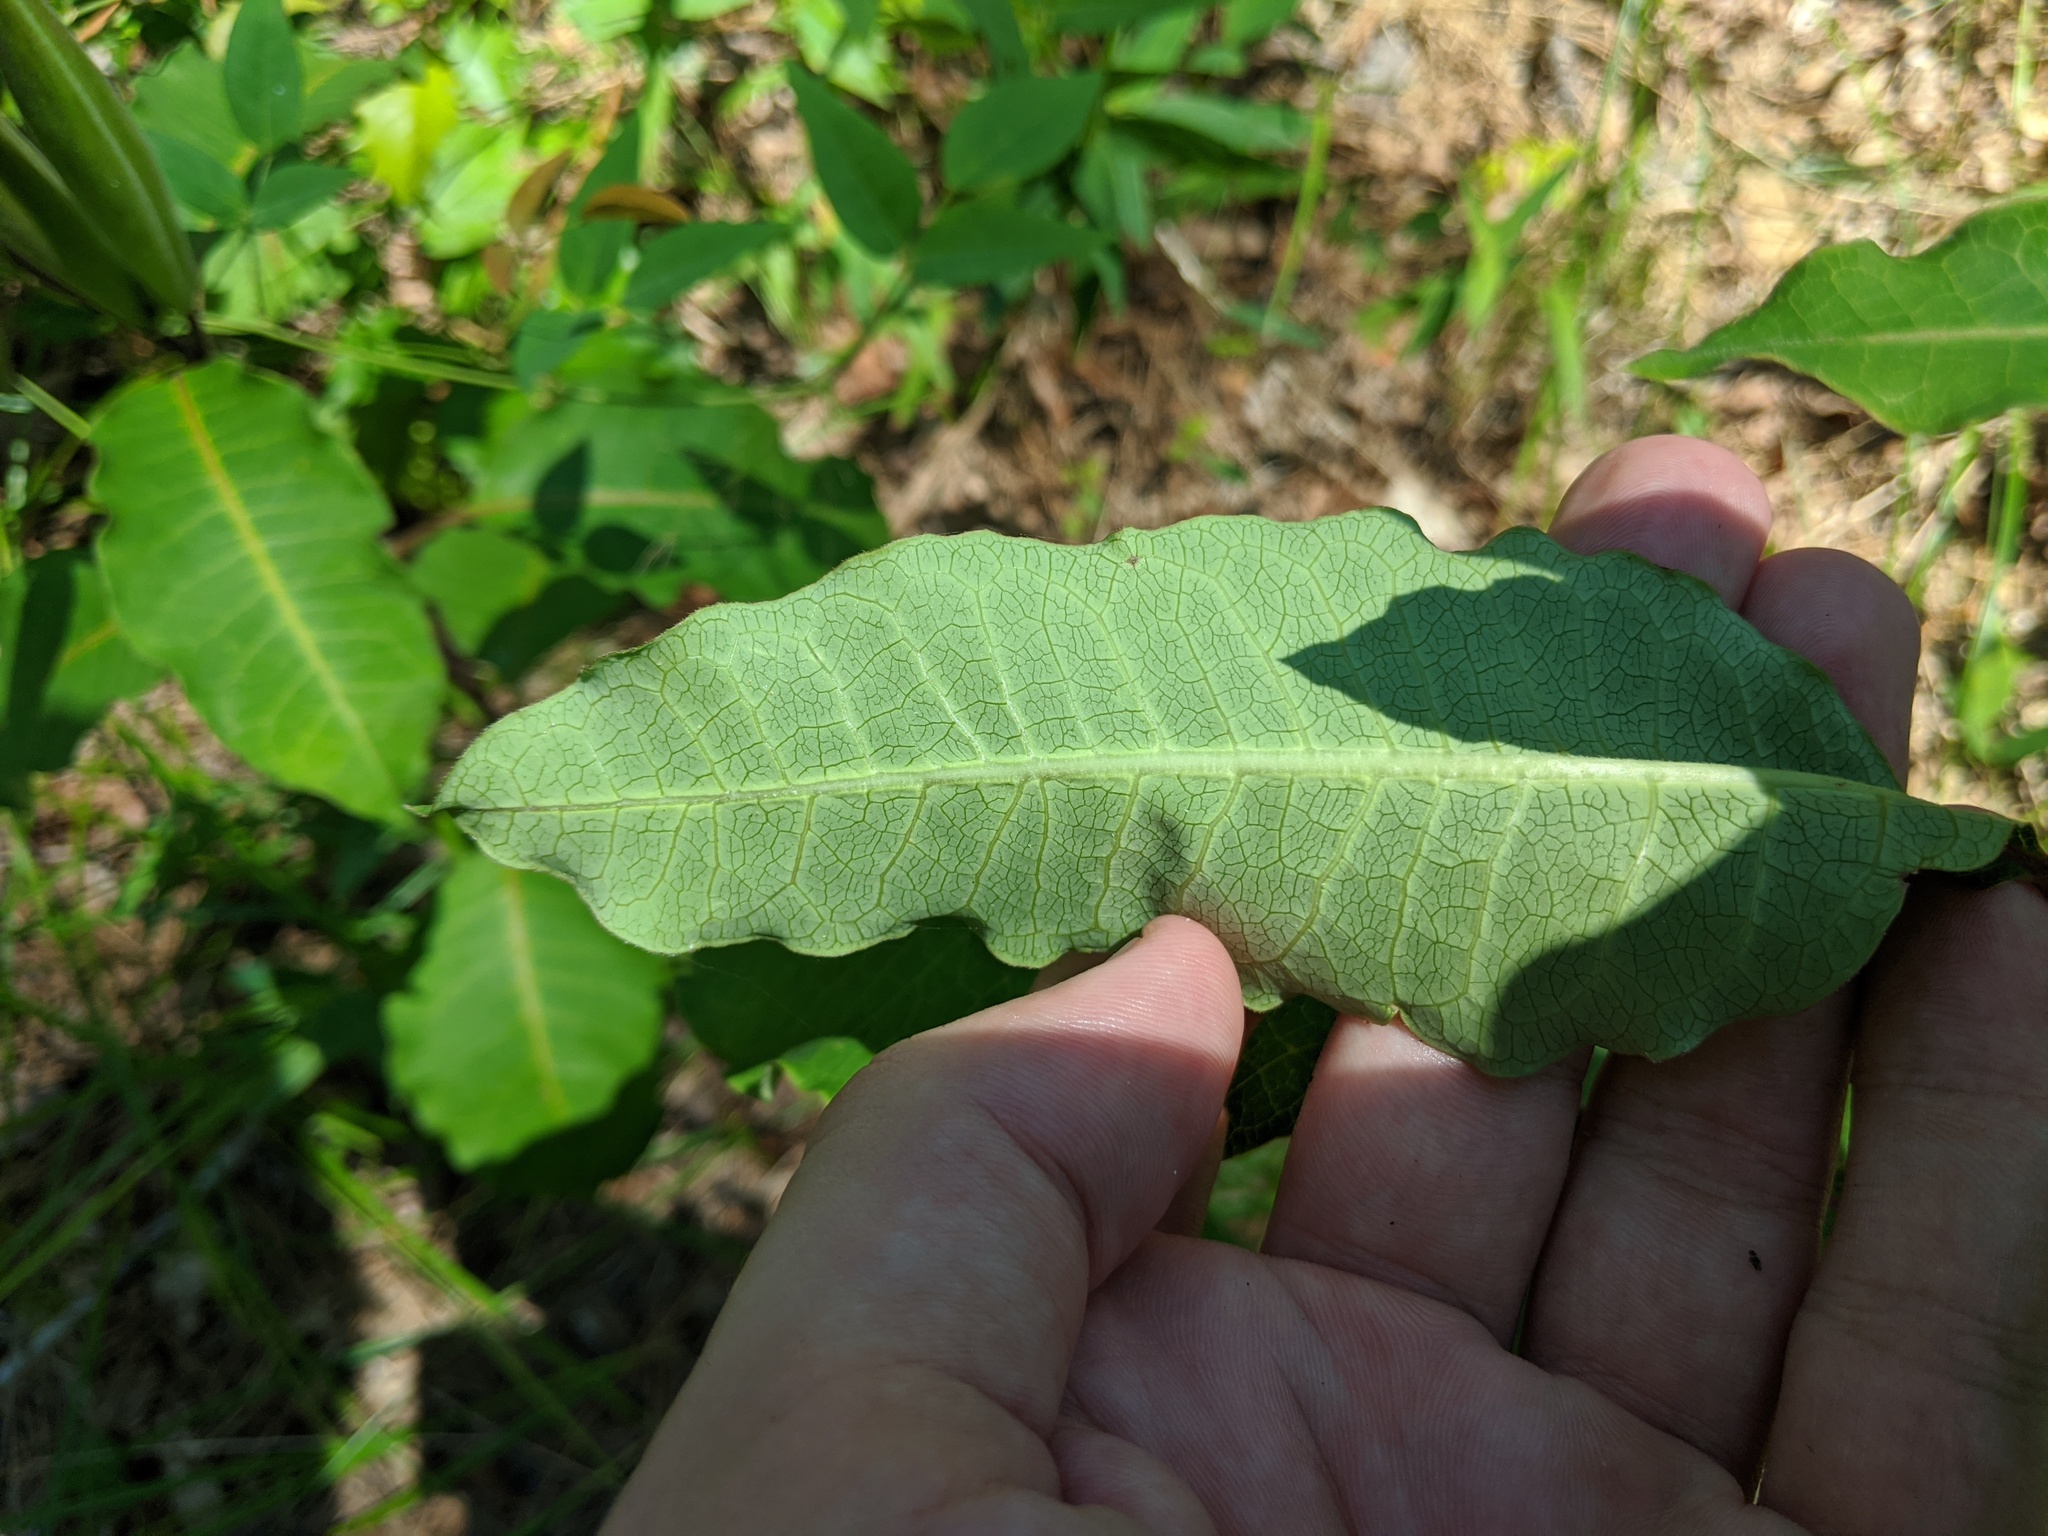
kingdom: Plantae
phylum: Tracheophyta
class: Magnoliopsida
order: Gentianales
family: Apocynaceae
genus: Asclepias
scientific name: Asclepias variegata
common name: Variegated milkweed
